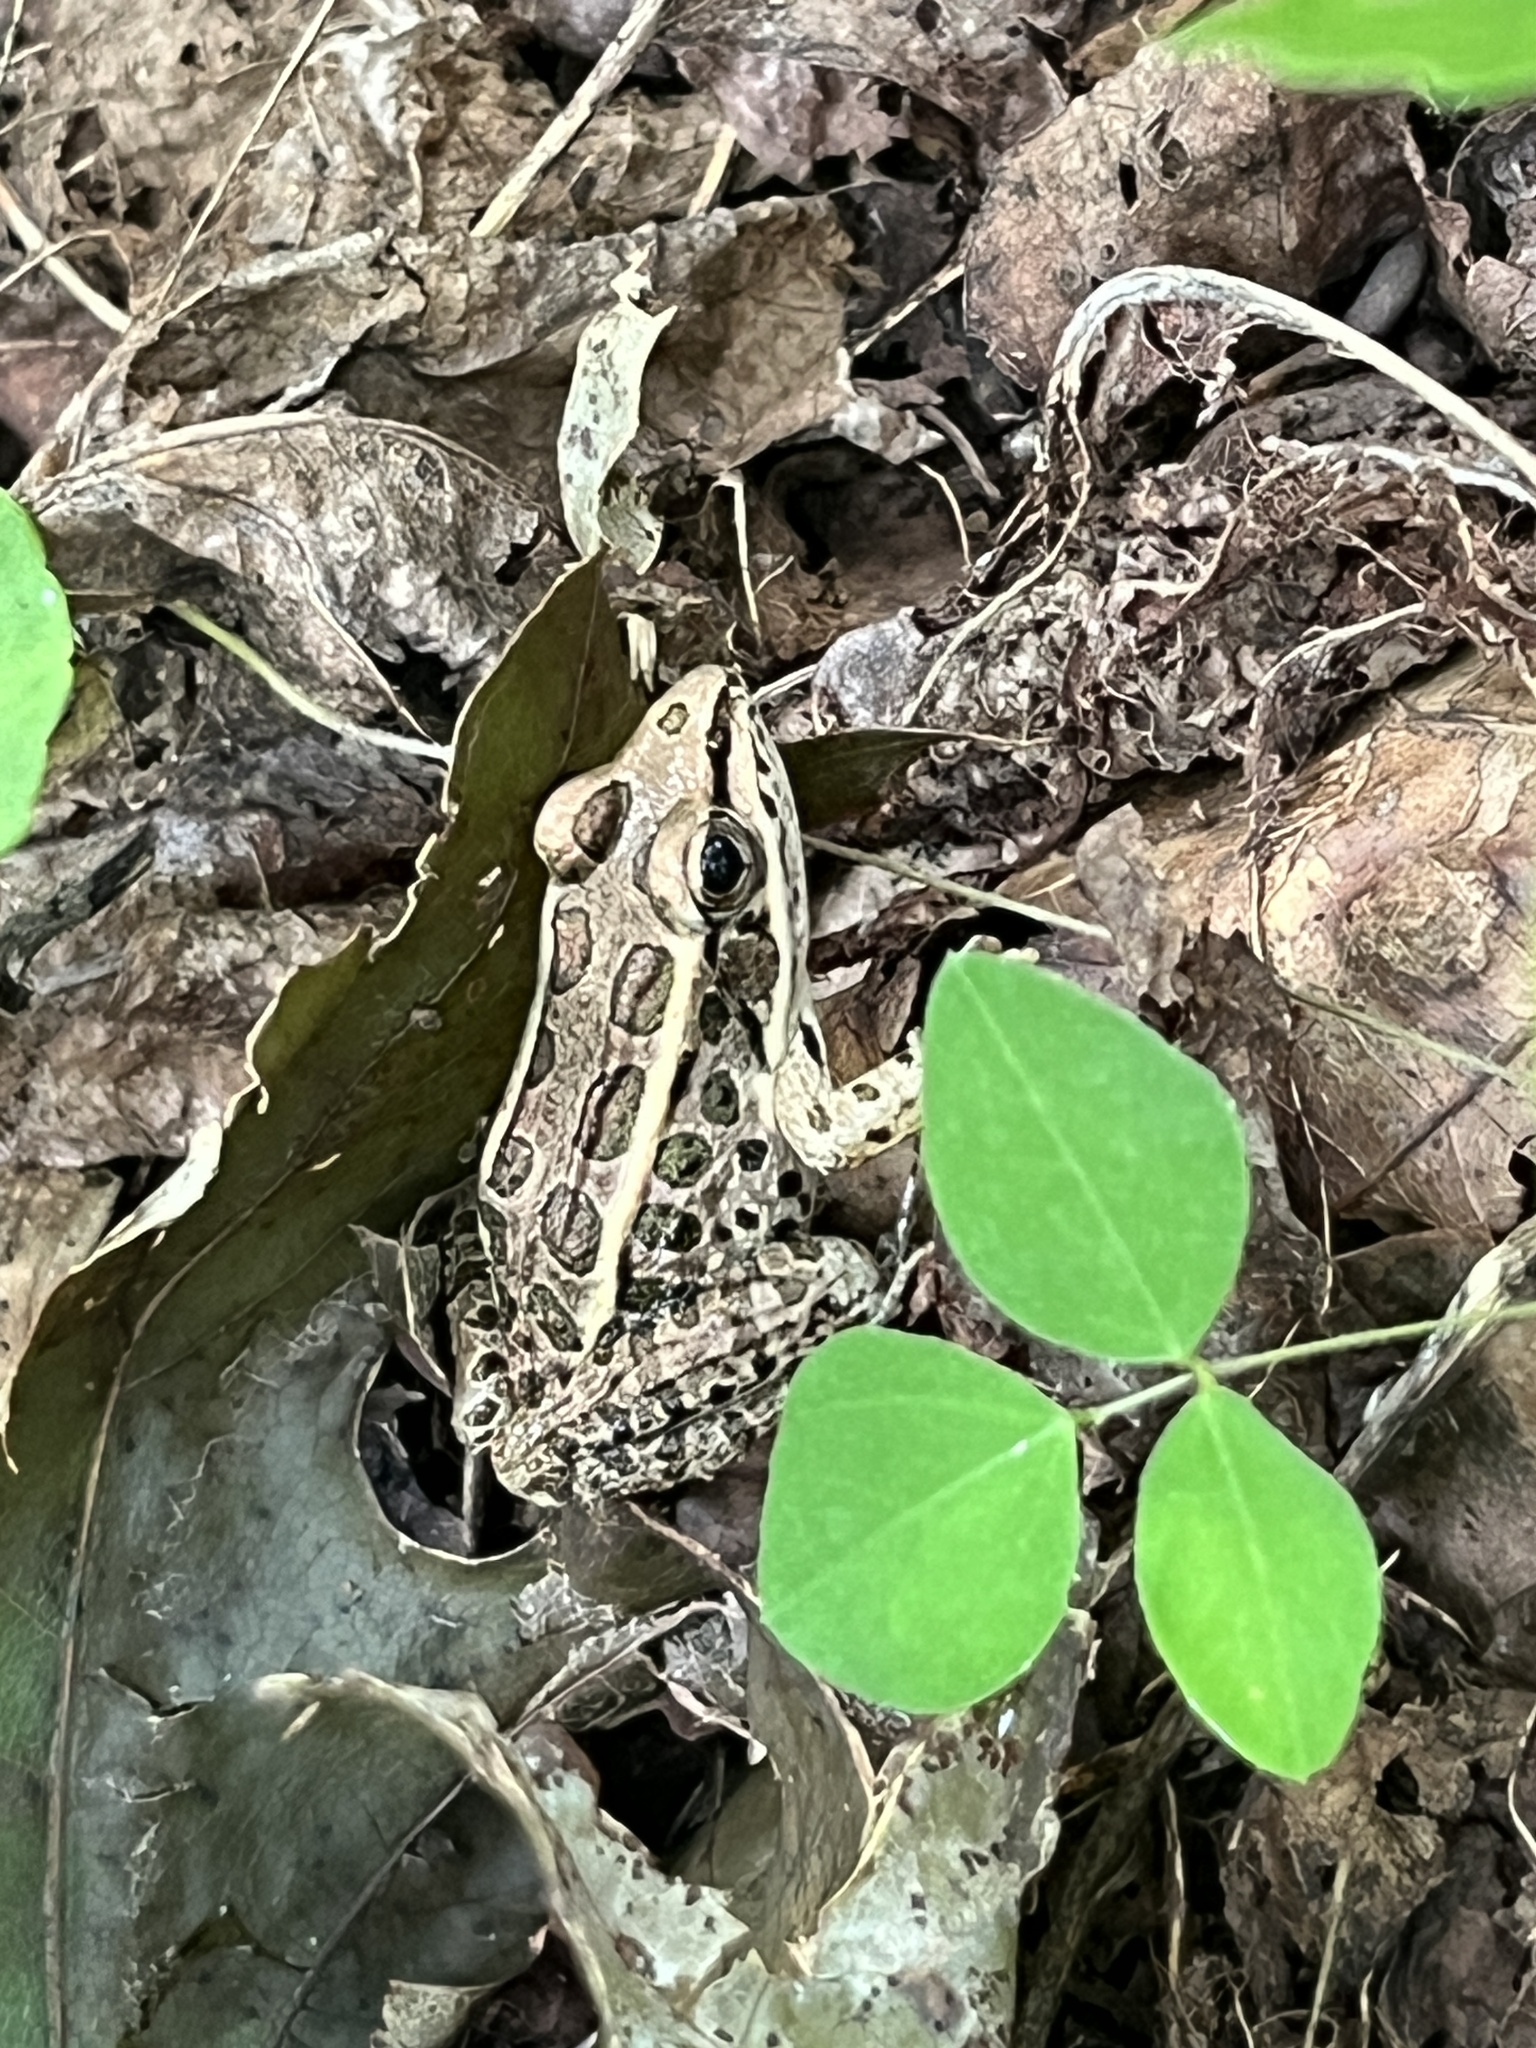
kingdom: Animalia
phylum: Chordata
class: Amphibia
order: Anura
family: Ranidae
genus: Lithobates
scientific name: Lithobates palustris
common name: Pickerel frog
